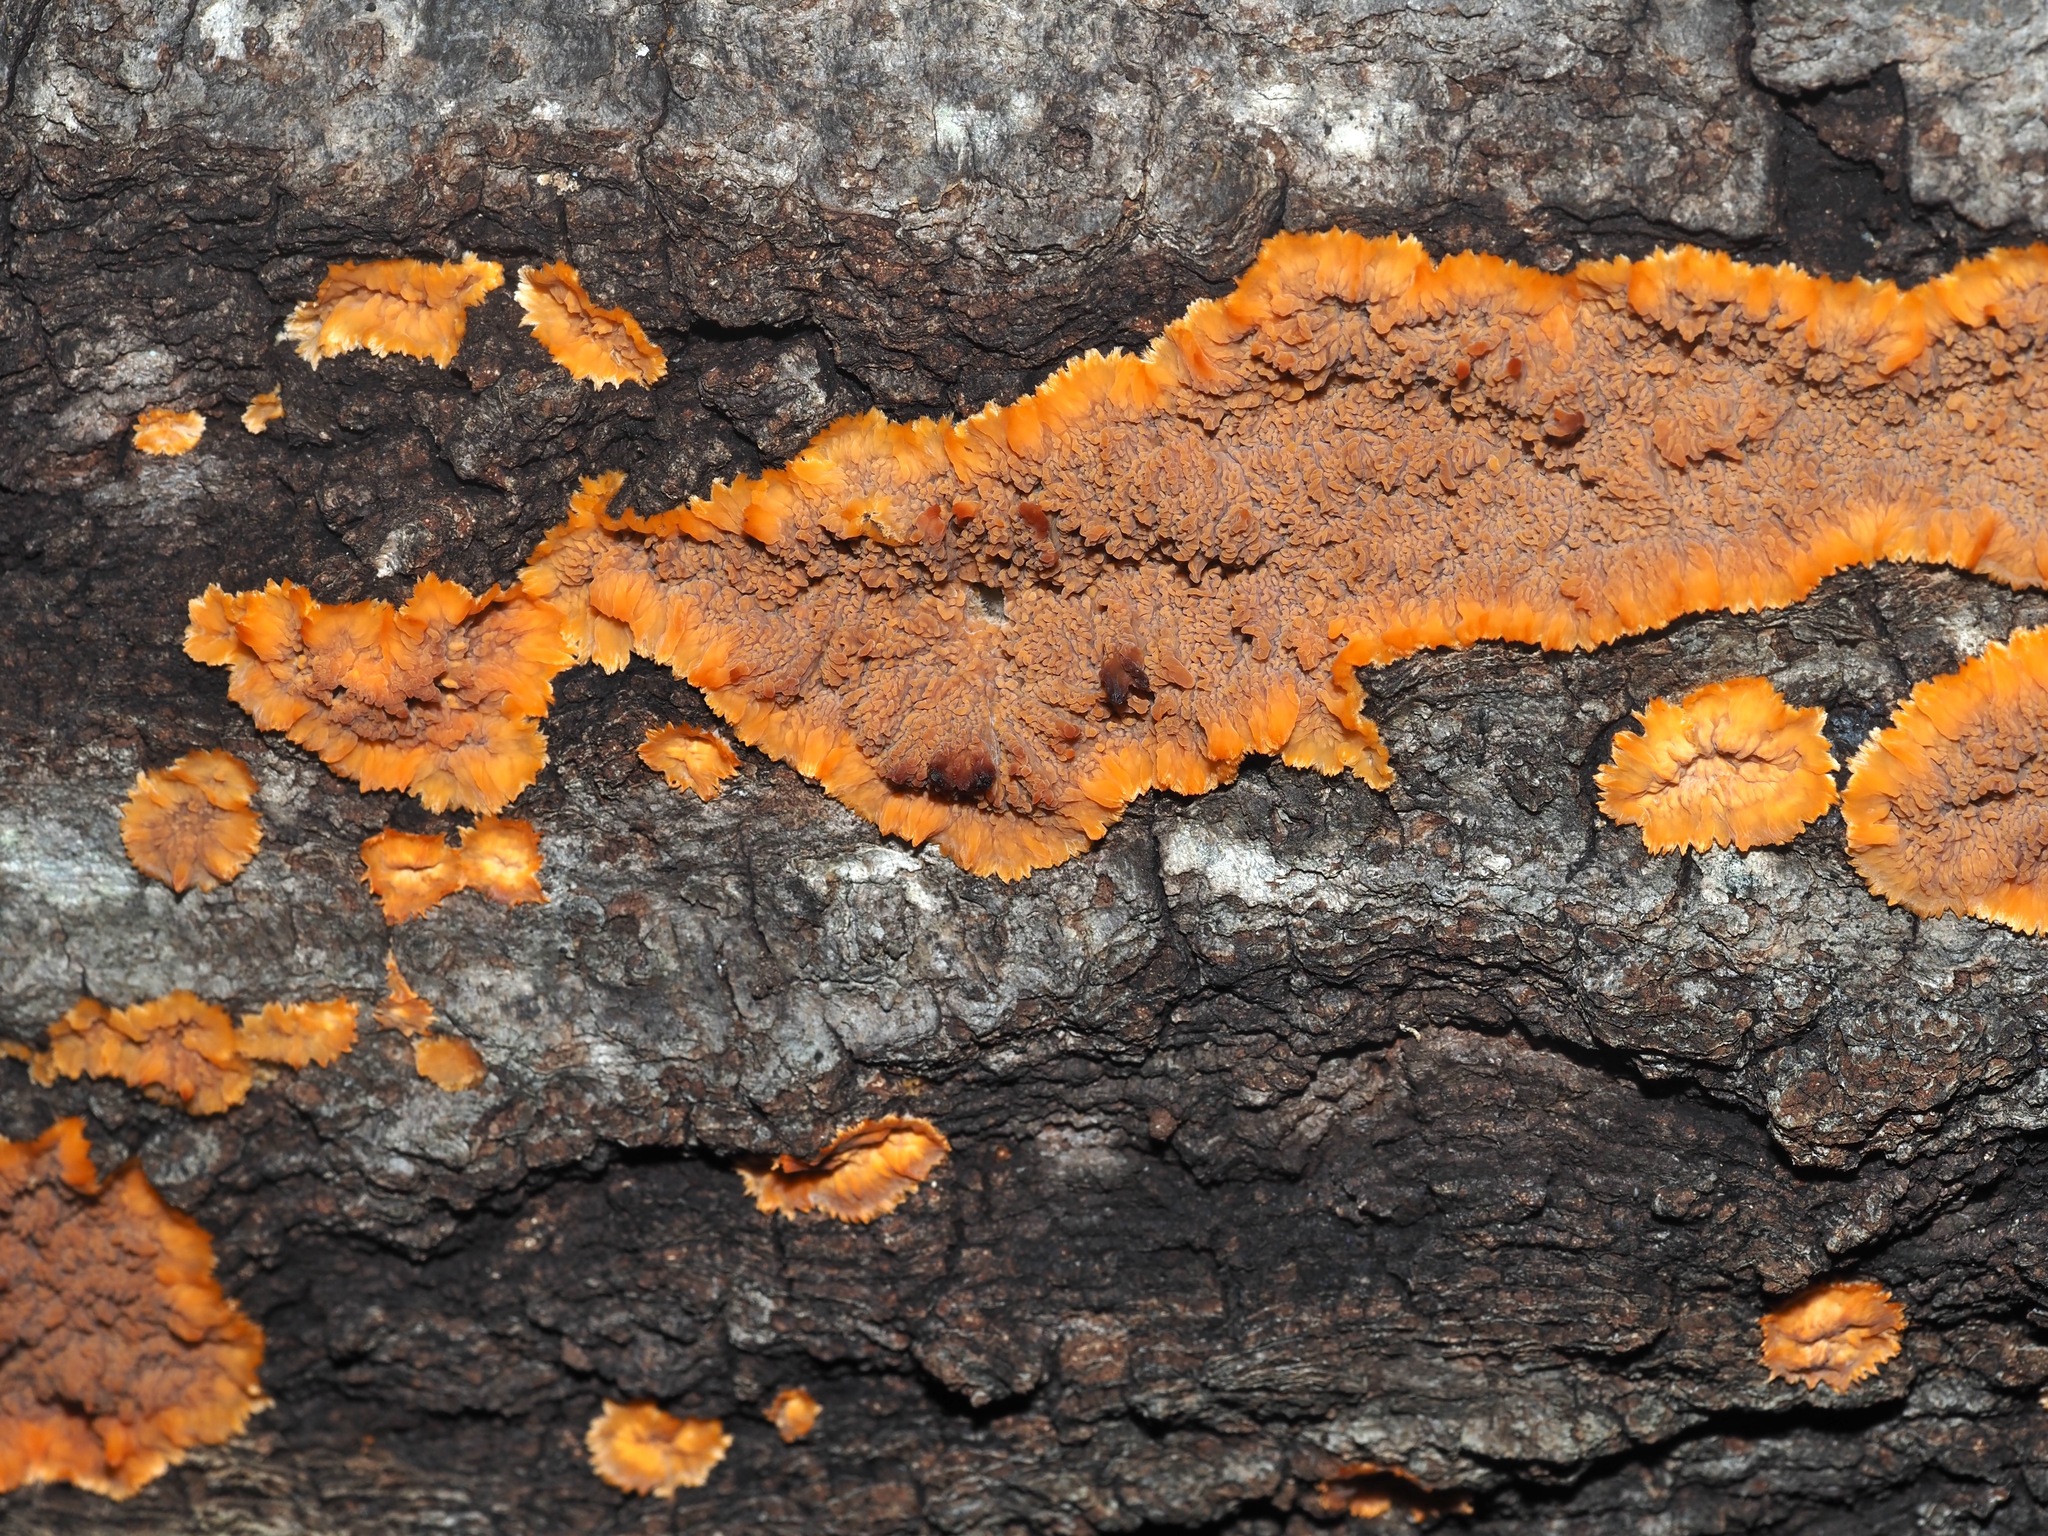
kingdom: Fungi
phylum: Basidiomycota
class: Agaricomycetes
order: Polyporales
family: Meruliaceae
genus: Phlebia
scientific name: Phlebia radiata
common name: Wrinkled crust
